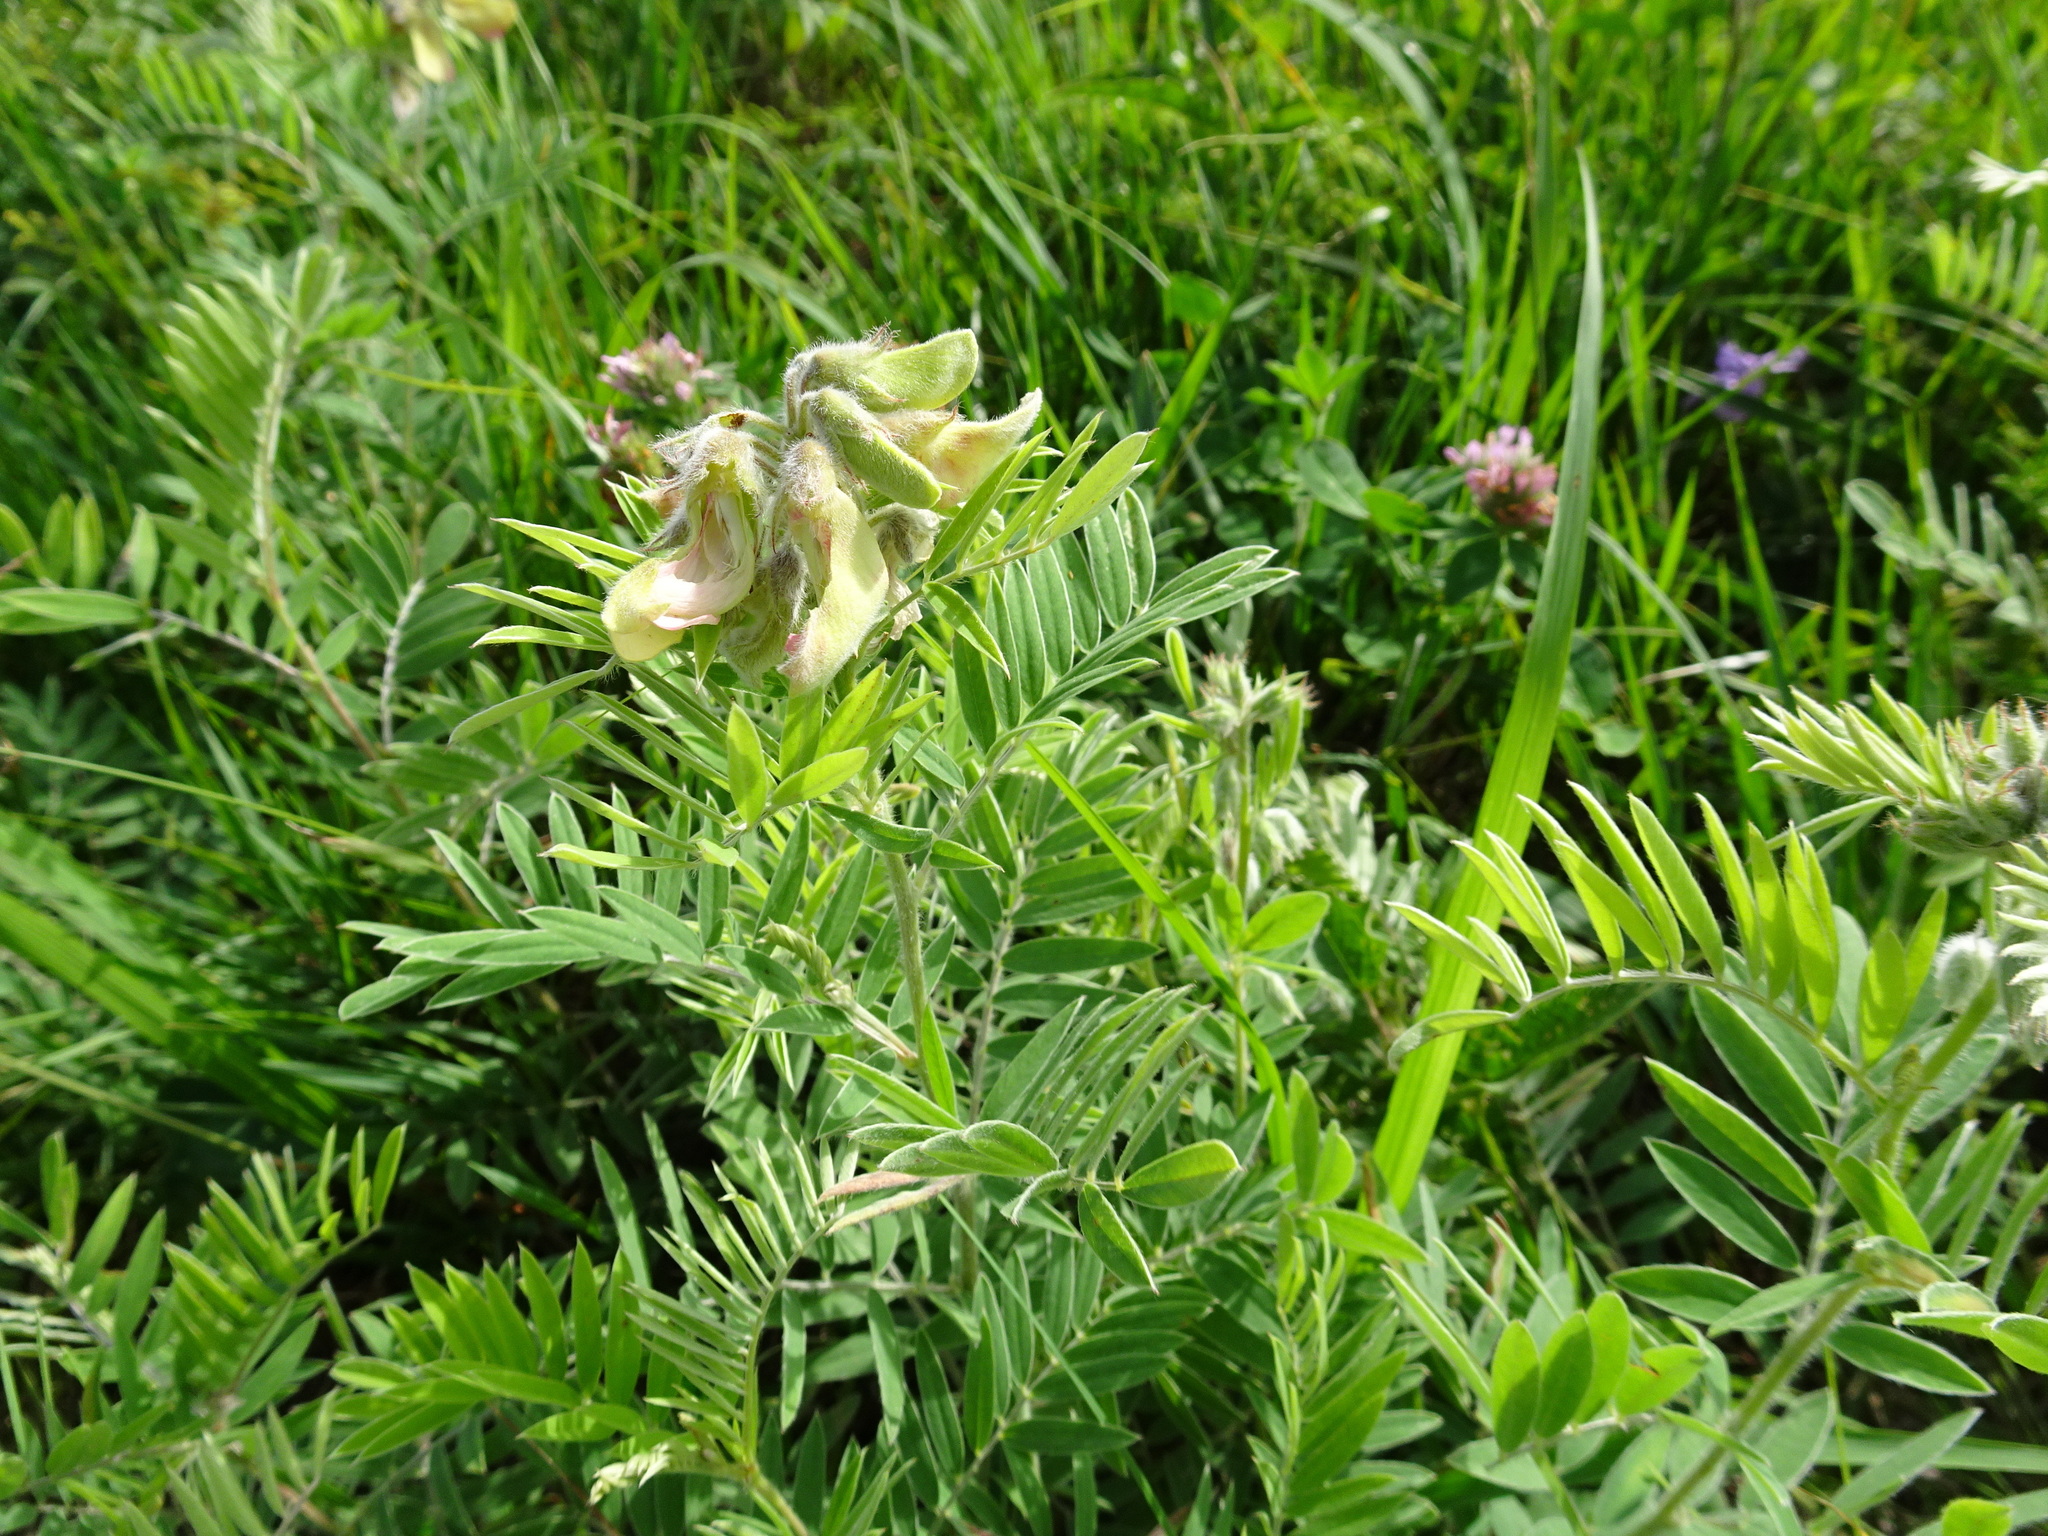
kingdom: Plantae
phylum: Tracheophyta
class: Magnoliopsida
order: Fabales
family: Fabaceae
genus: Tephrosia
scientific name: Tephrosia virginiana
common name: Rabbit-pea
